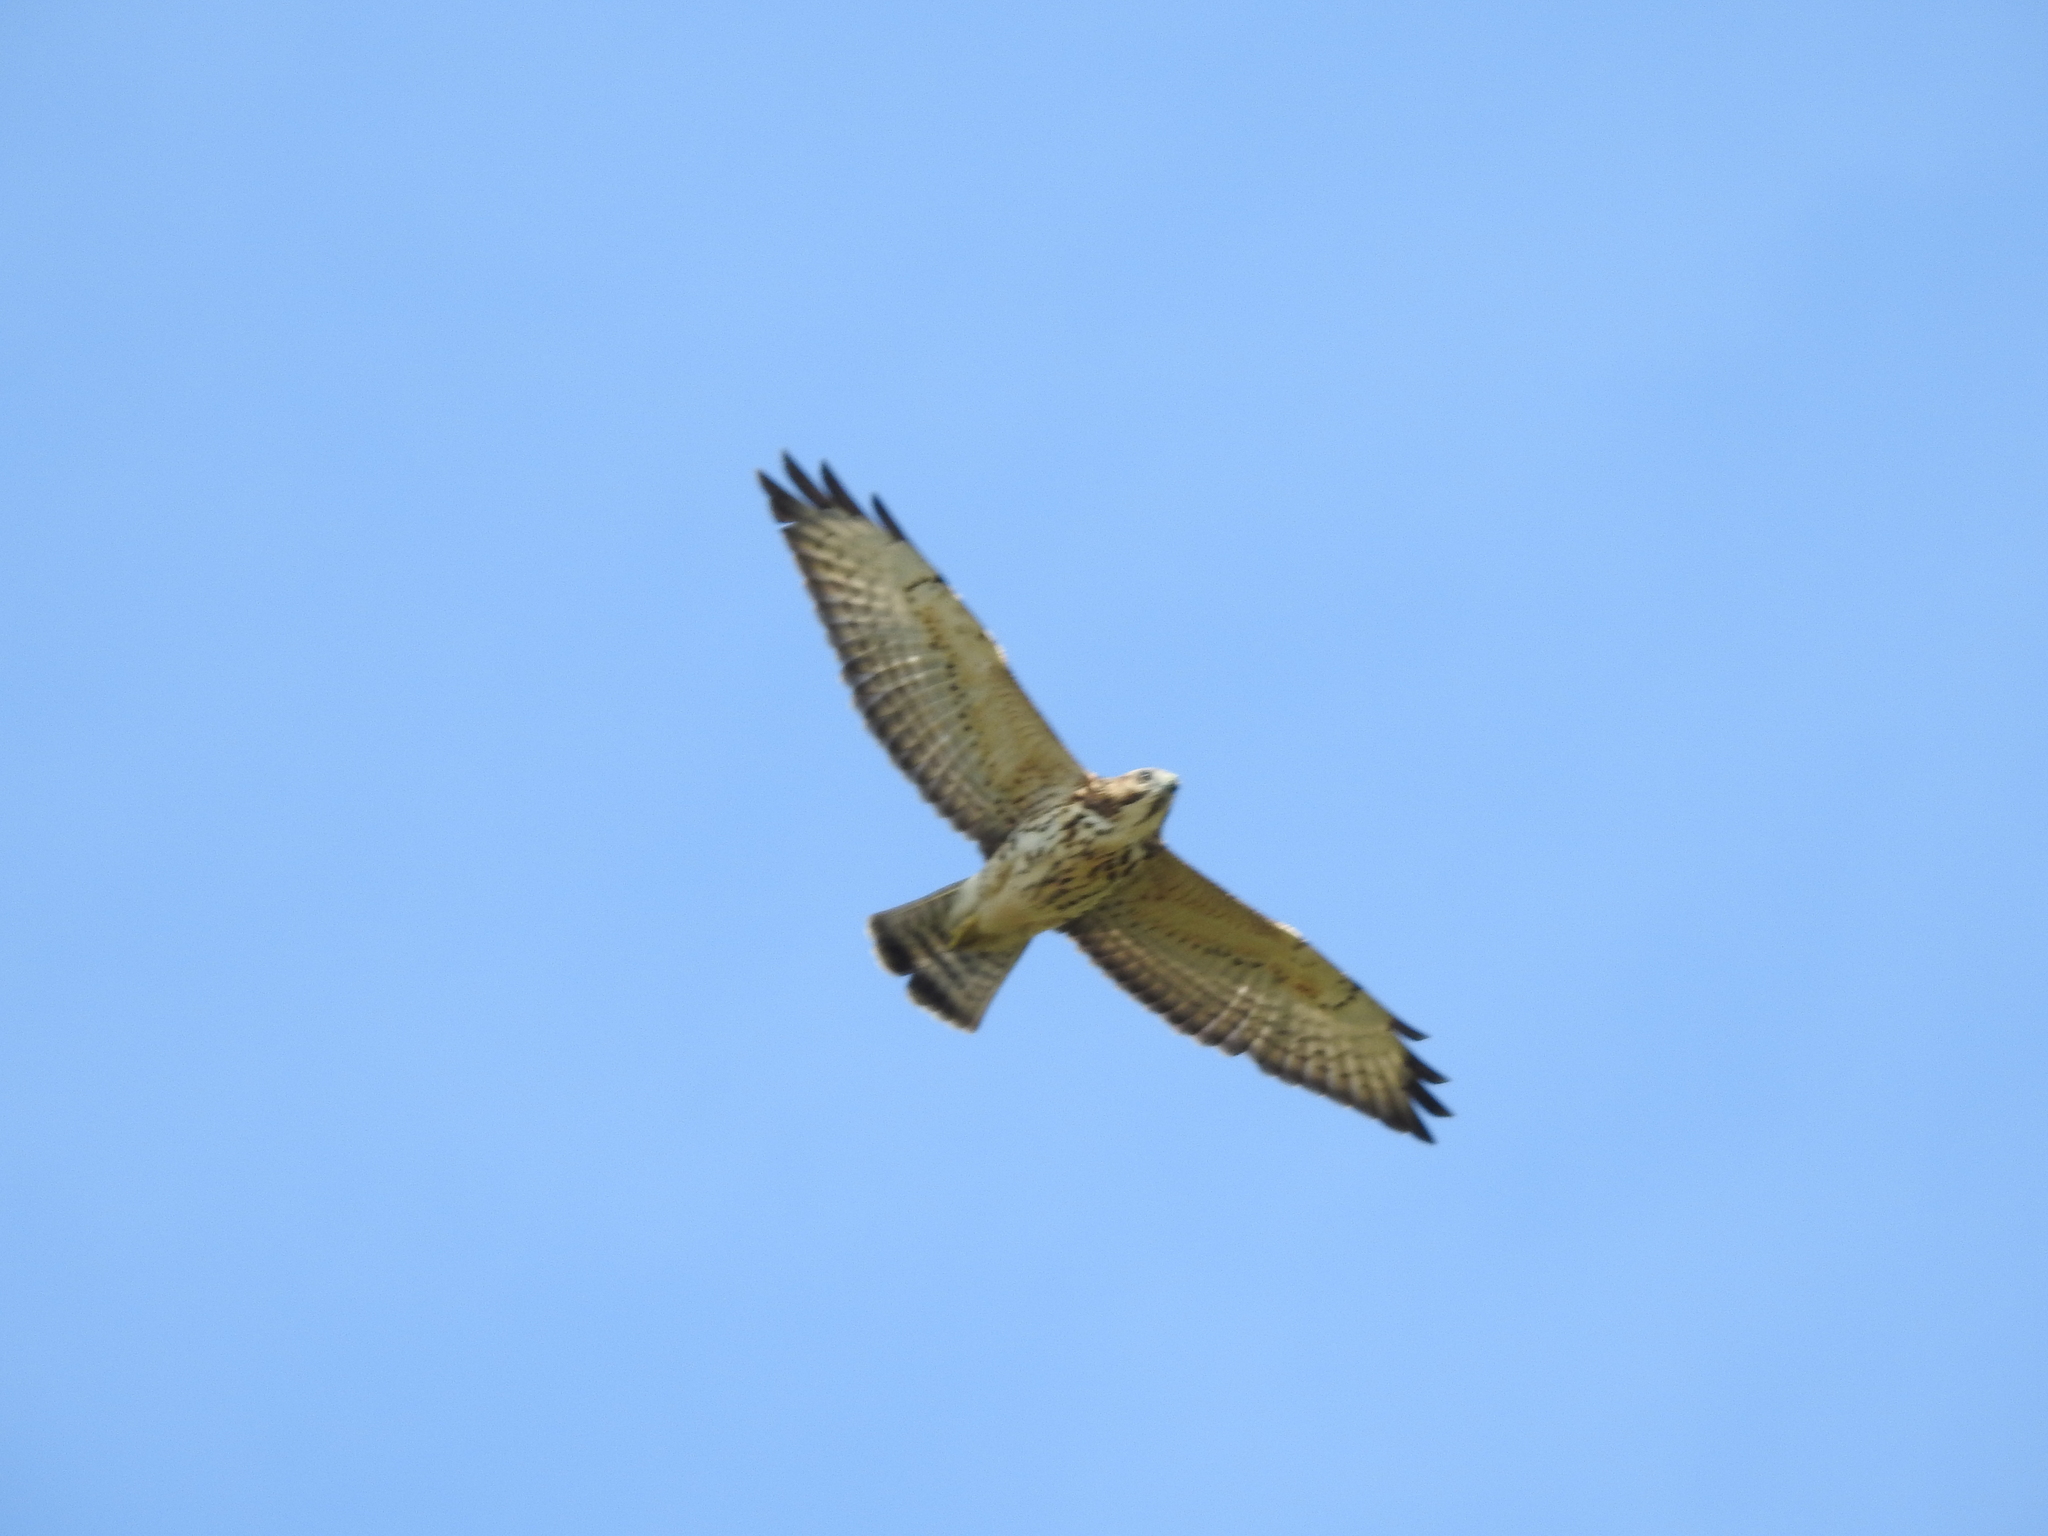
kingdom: Animalia
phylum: Chordata
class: Aves
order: Accipitriformes
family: Accipitridae
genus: Buteo
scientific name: Buteo platypterus
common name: Broad-winged hawk
